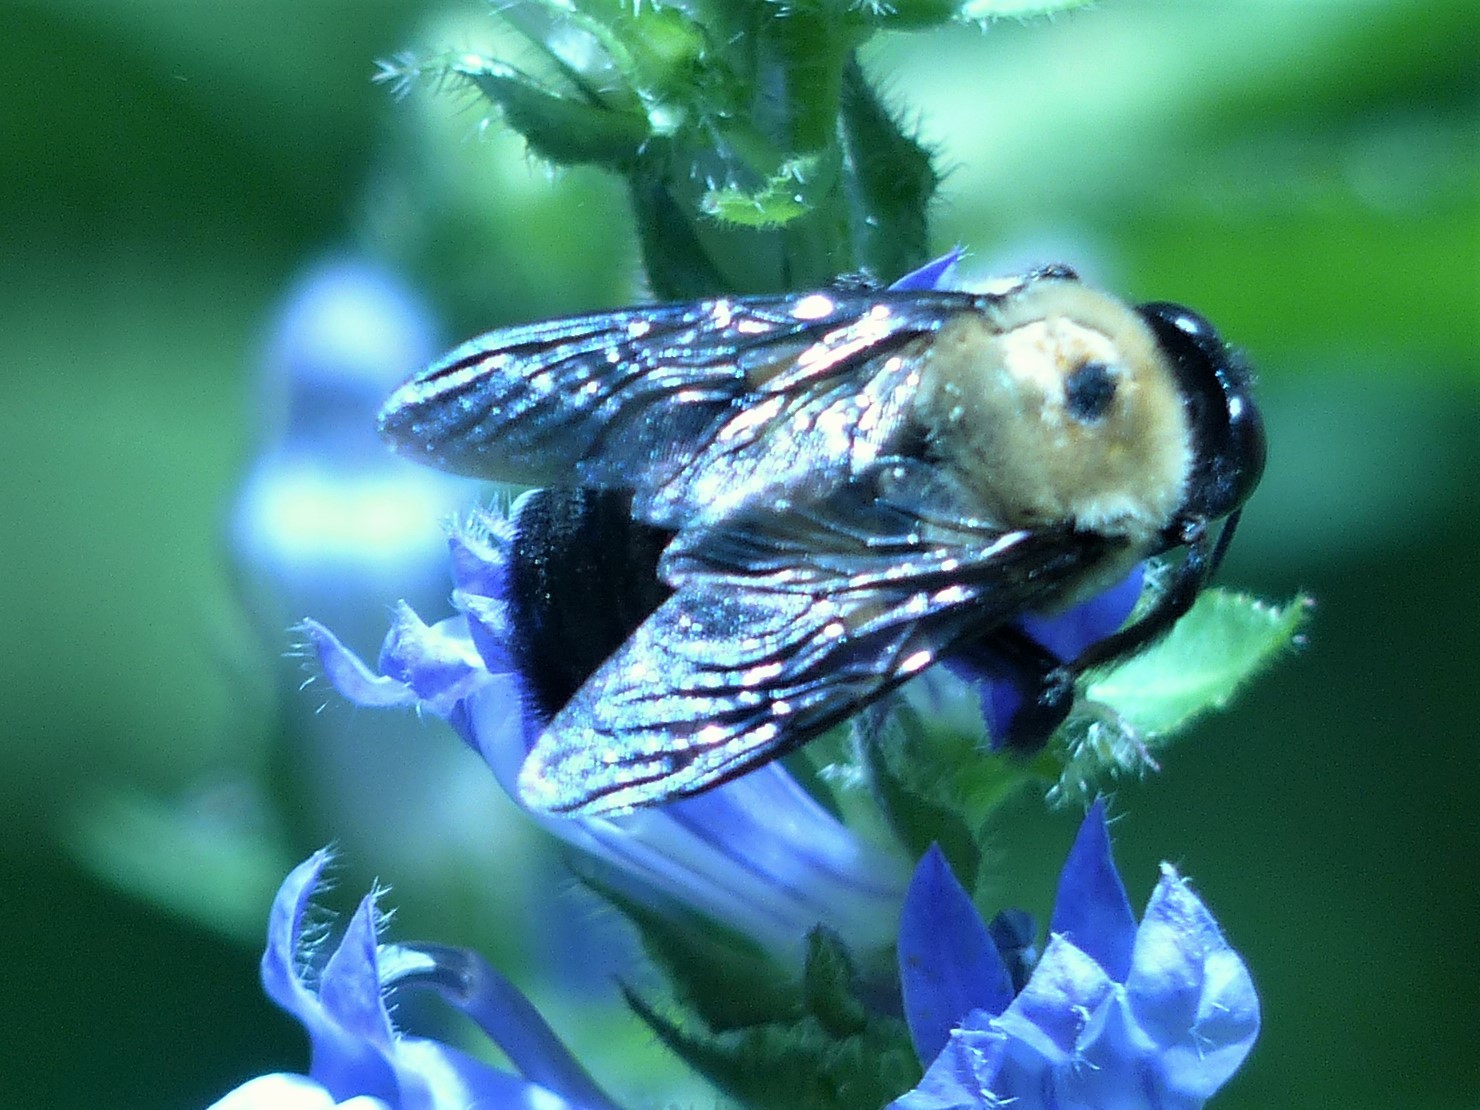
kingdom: Animalia
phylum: Arthropoda
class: Insecta
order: Hymenoptera
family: Apidae
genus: Xylocopa
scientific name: Xylocopa virginica
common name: Carpenter bee
